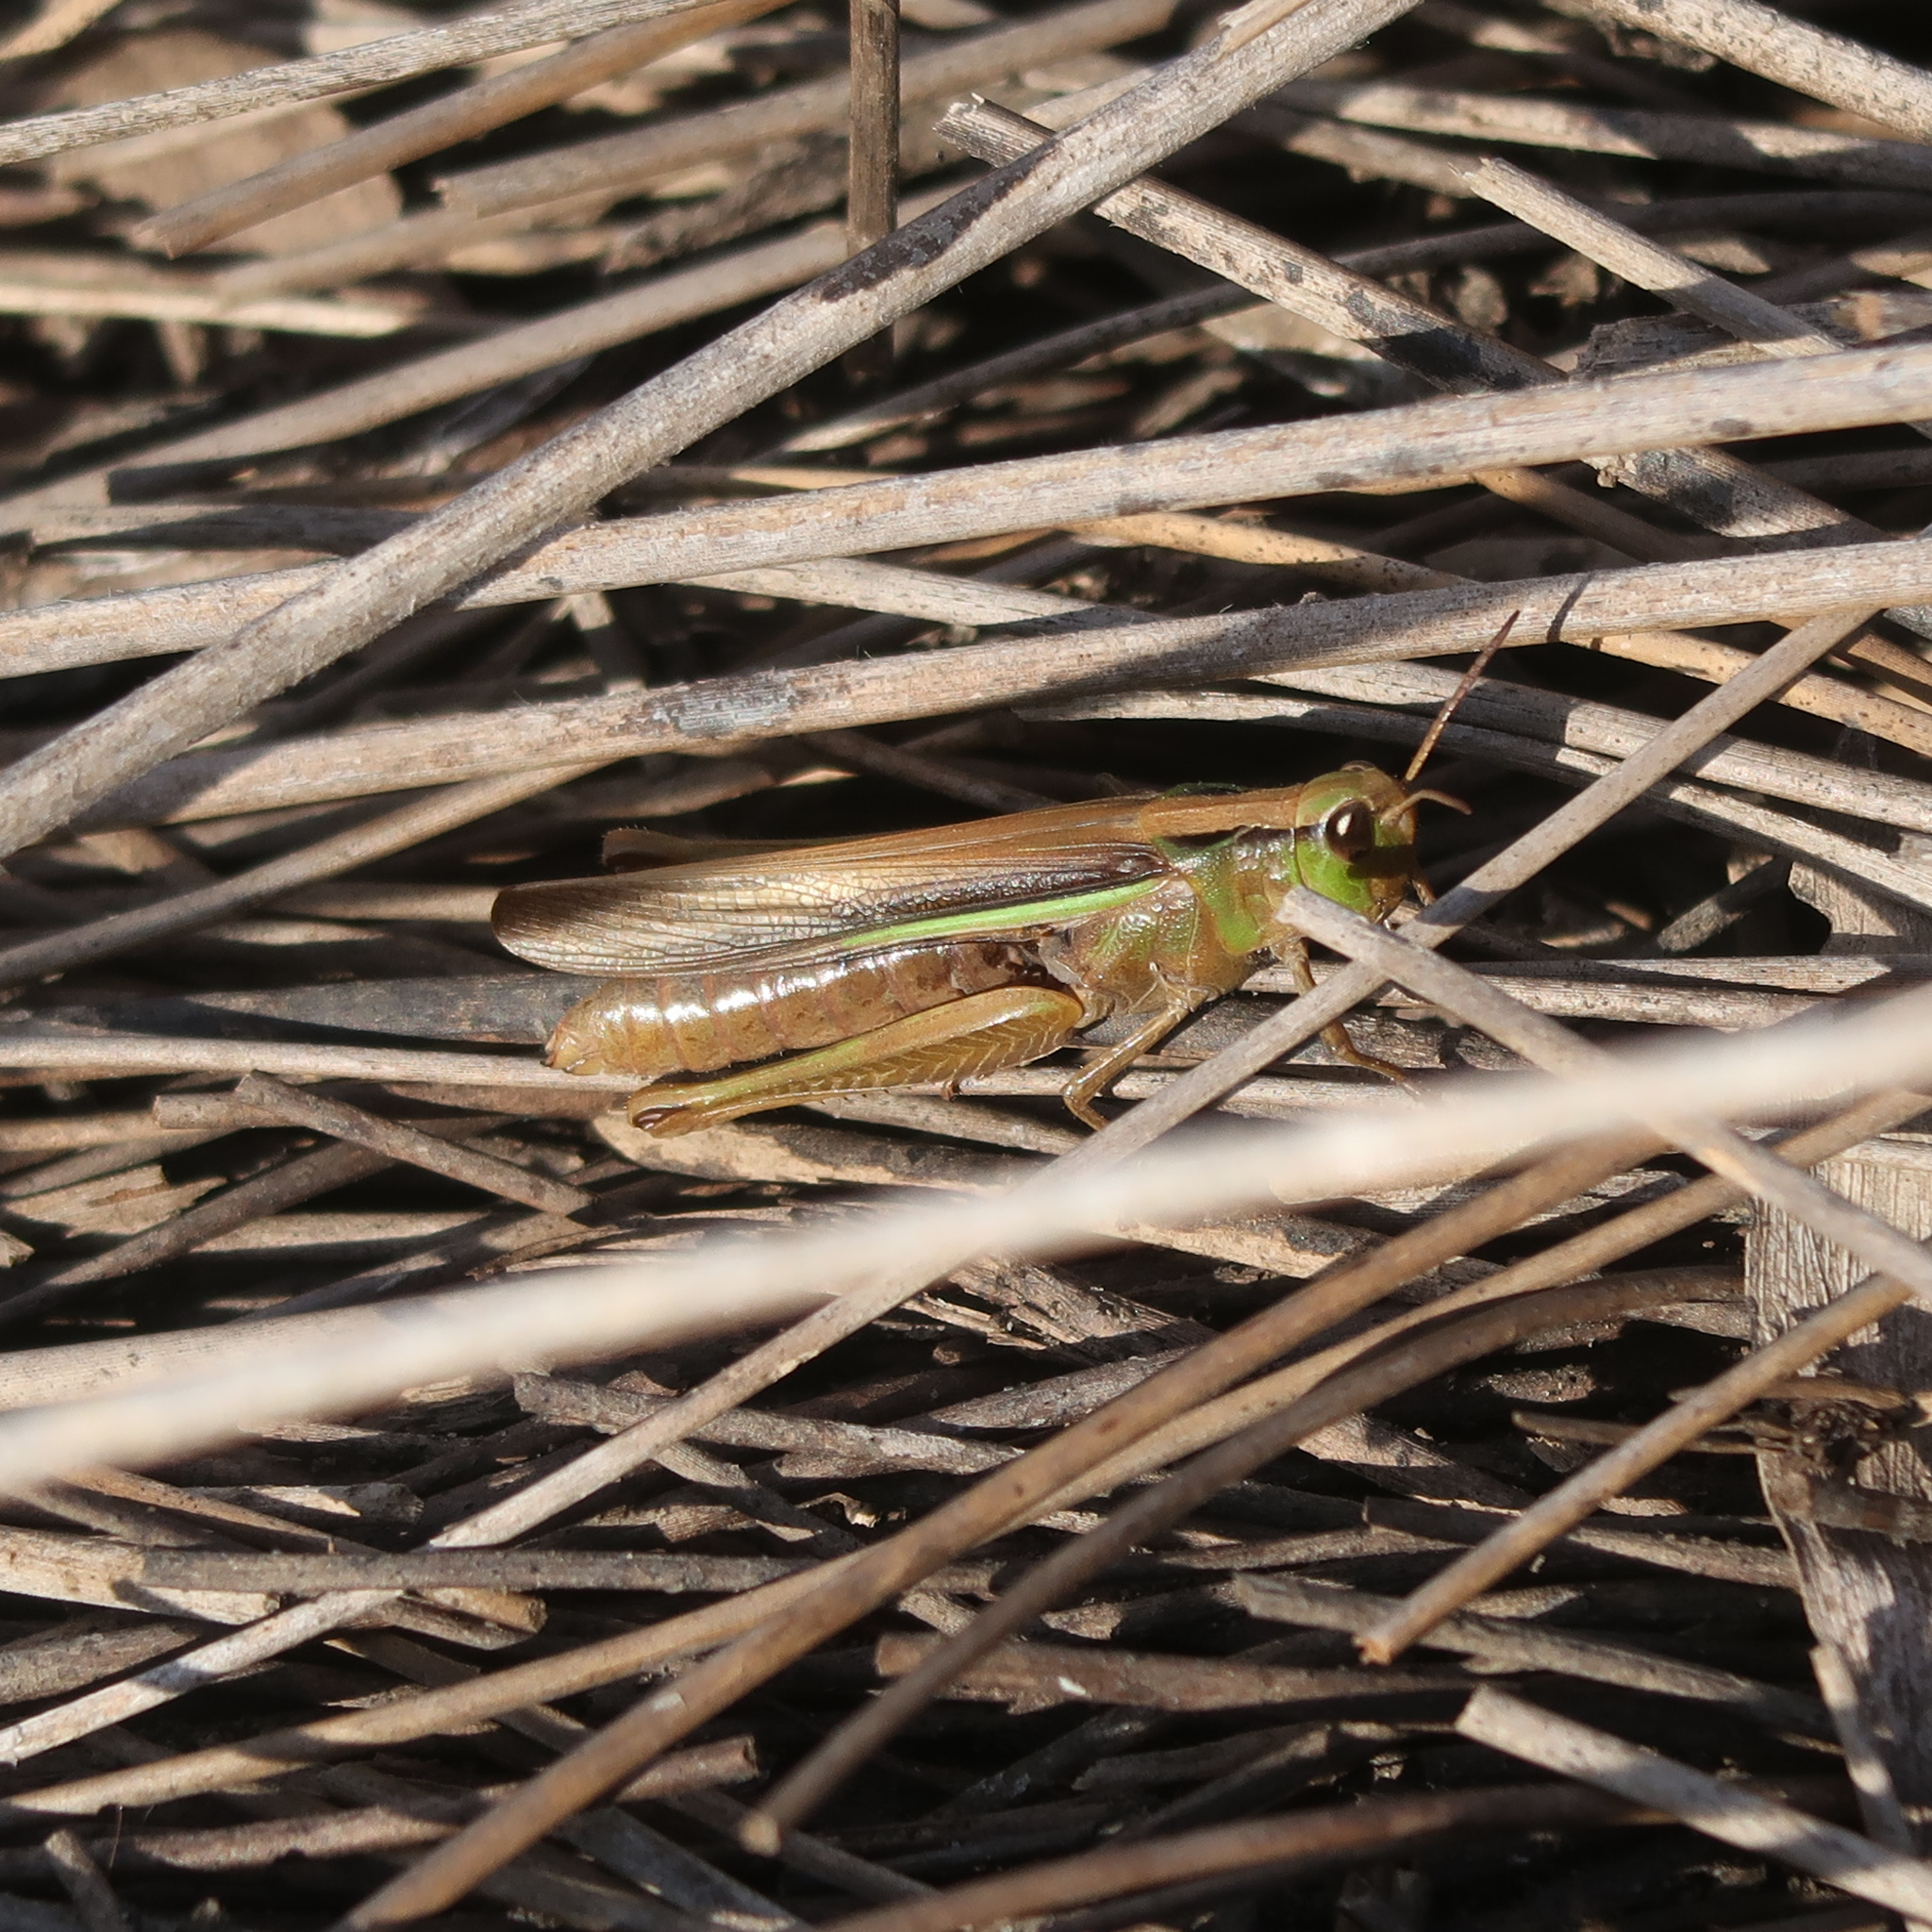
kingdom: Animalia
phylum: Arthropoda
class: Insecta
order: Orthoptera
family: Acrididae
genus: Schizobothrus
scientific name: Schizobothrus flavovittatus
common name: Disappearing grasshopper
